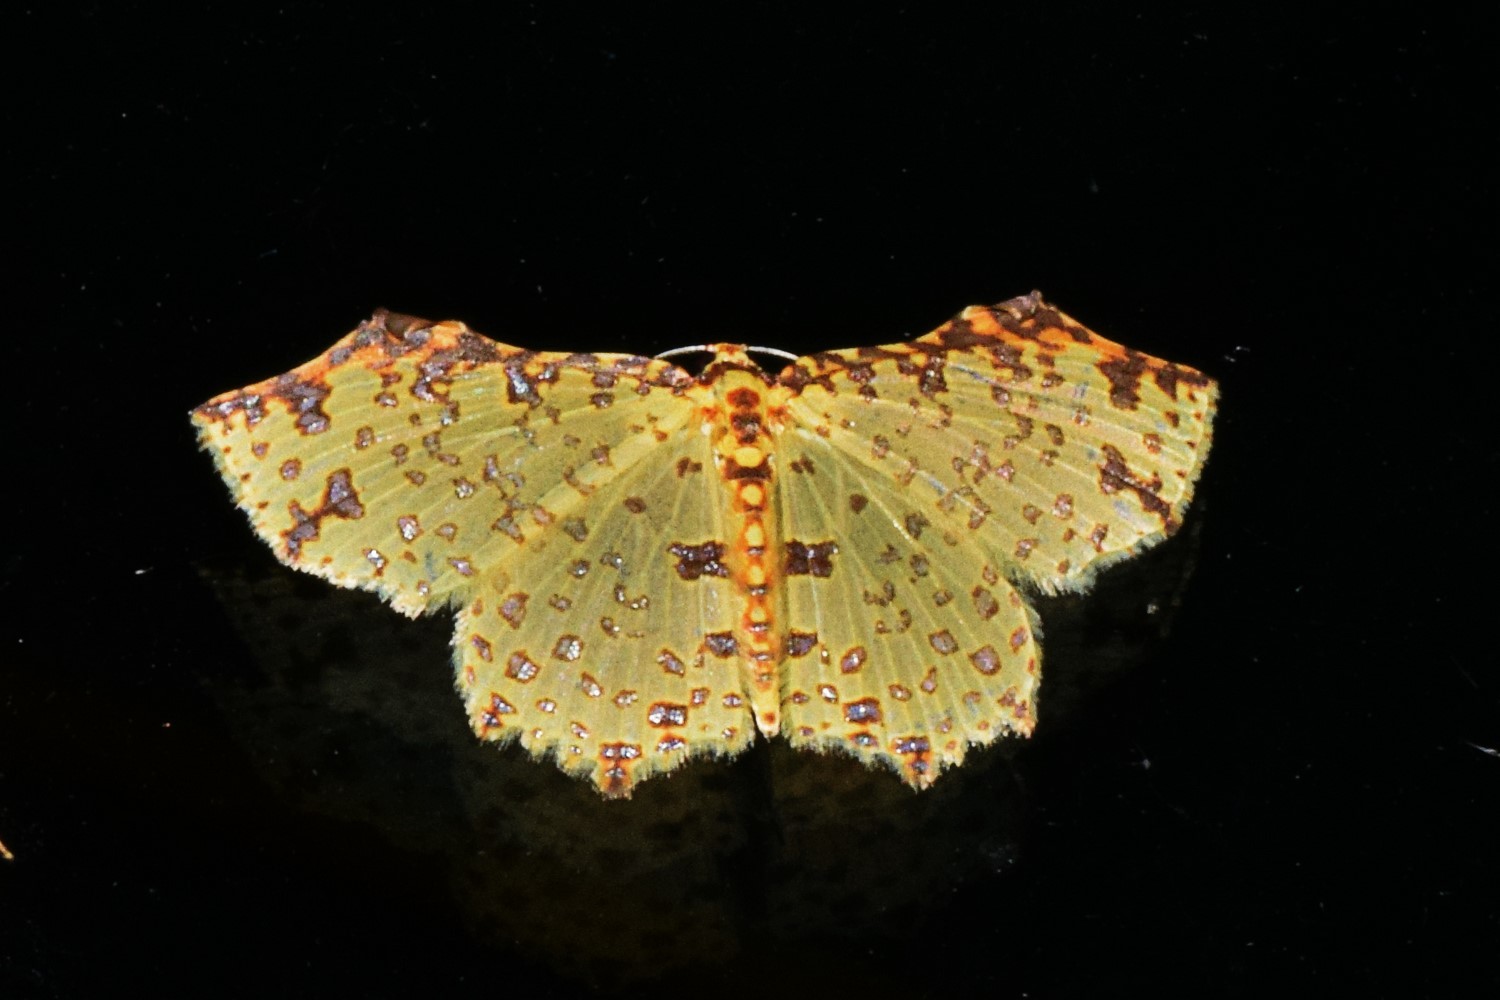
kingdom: Animalia
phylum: Arthropoda
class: Insecta
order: Lepidoptera
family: Geometridae
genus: Polynesia
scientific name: Polynesia truncapex
